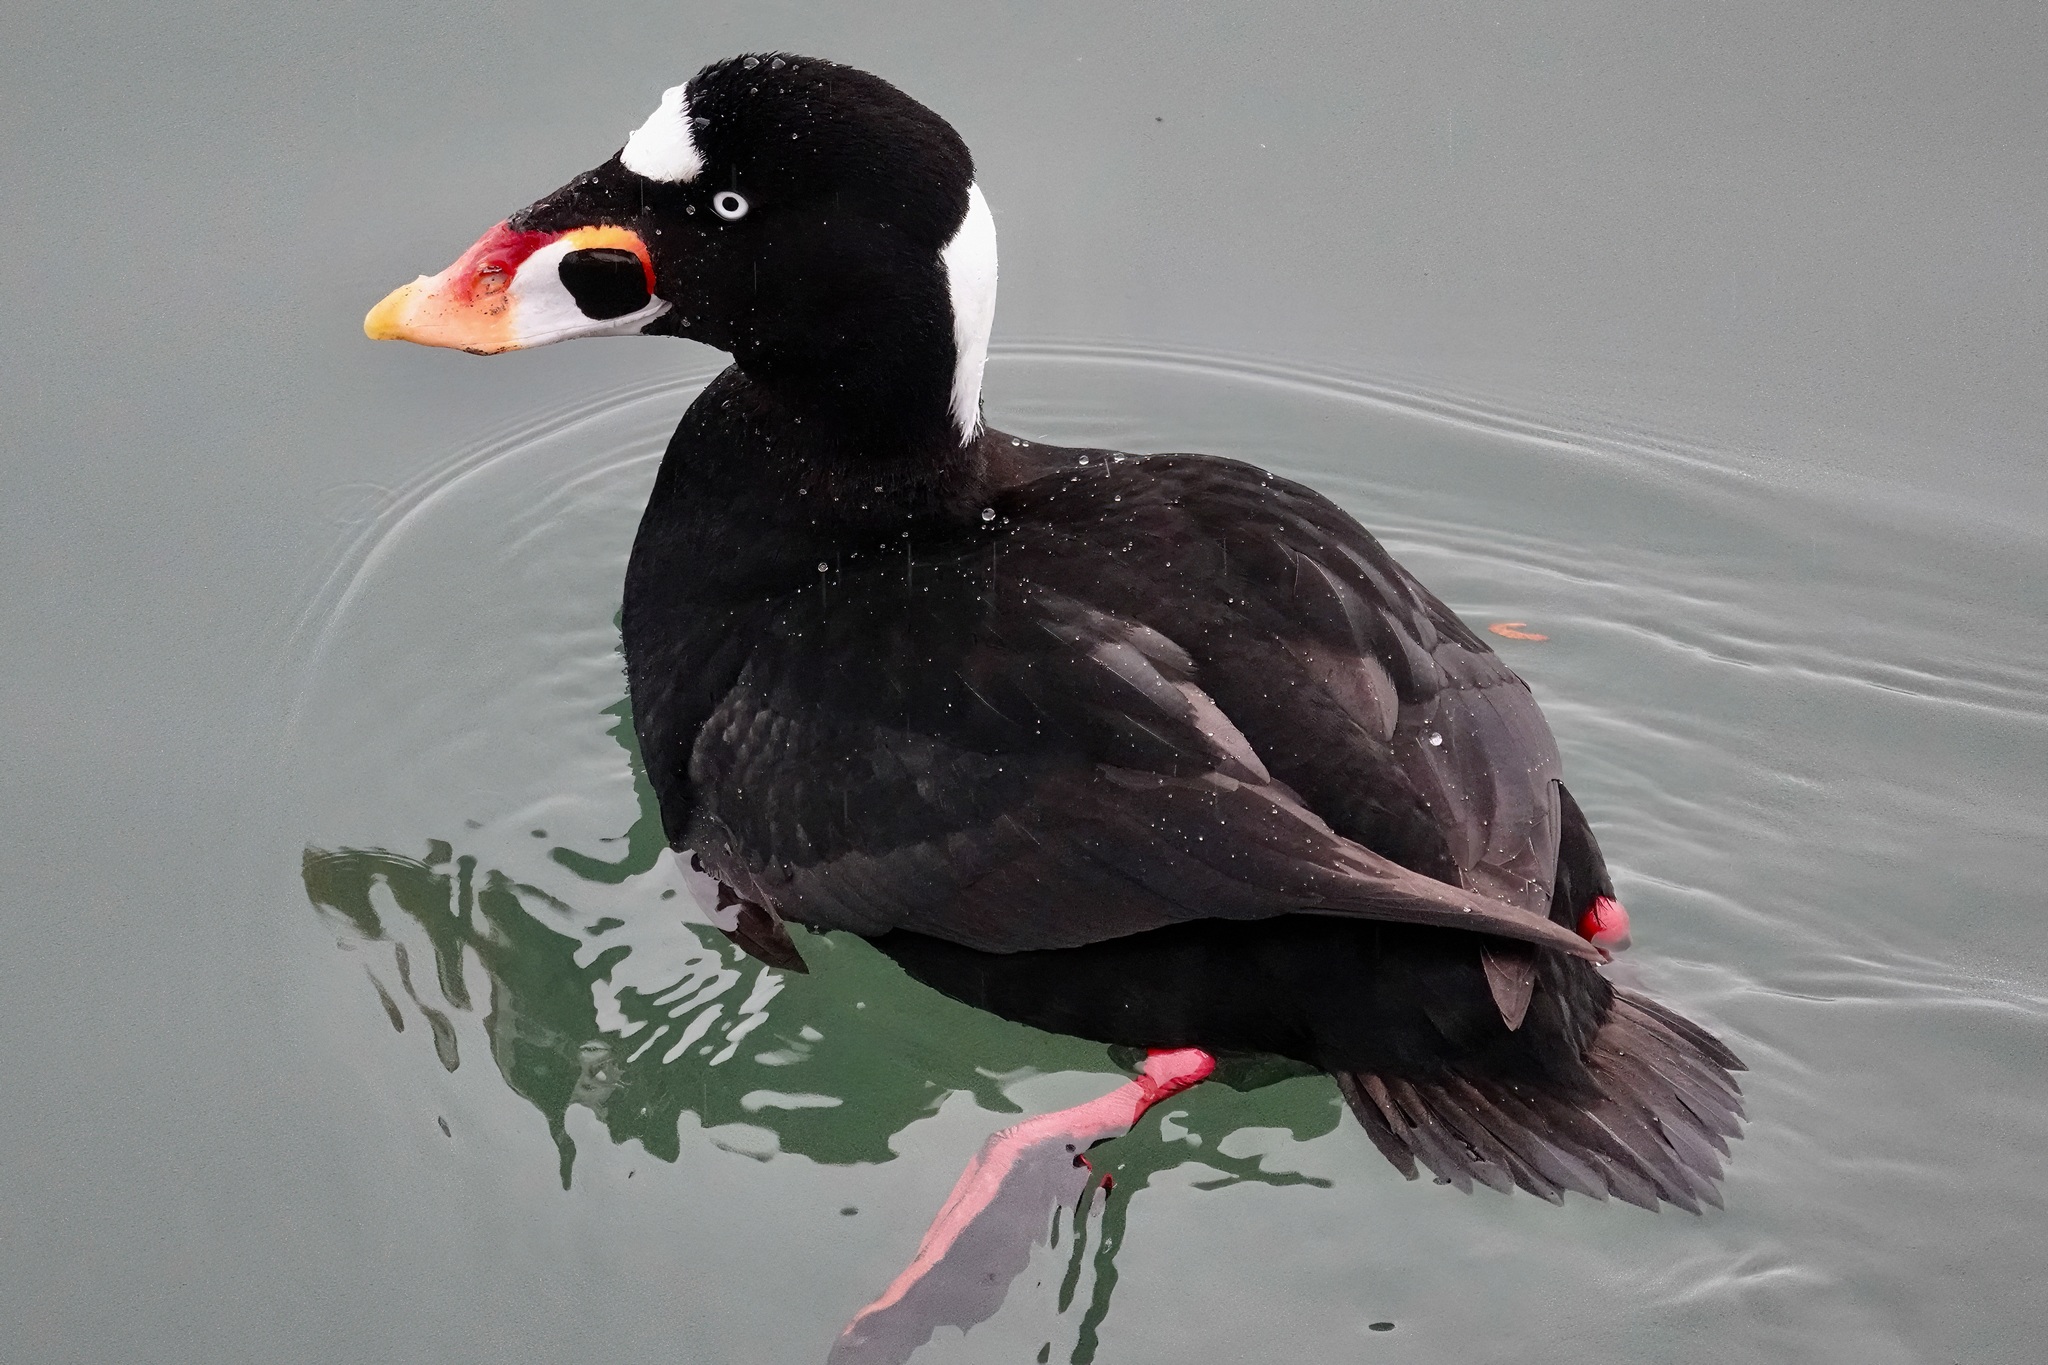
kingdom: Animalia
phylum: Chordata
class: Aves
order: Anseriformes
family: Anatidae
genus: Melanitta
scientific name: Melanitta perspicillata
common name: Surf scoter
